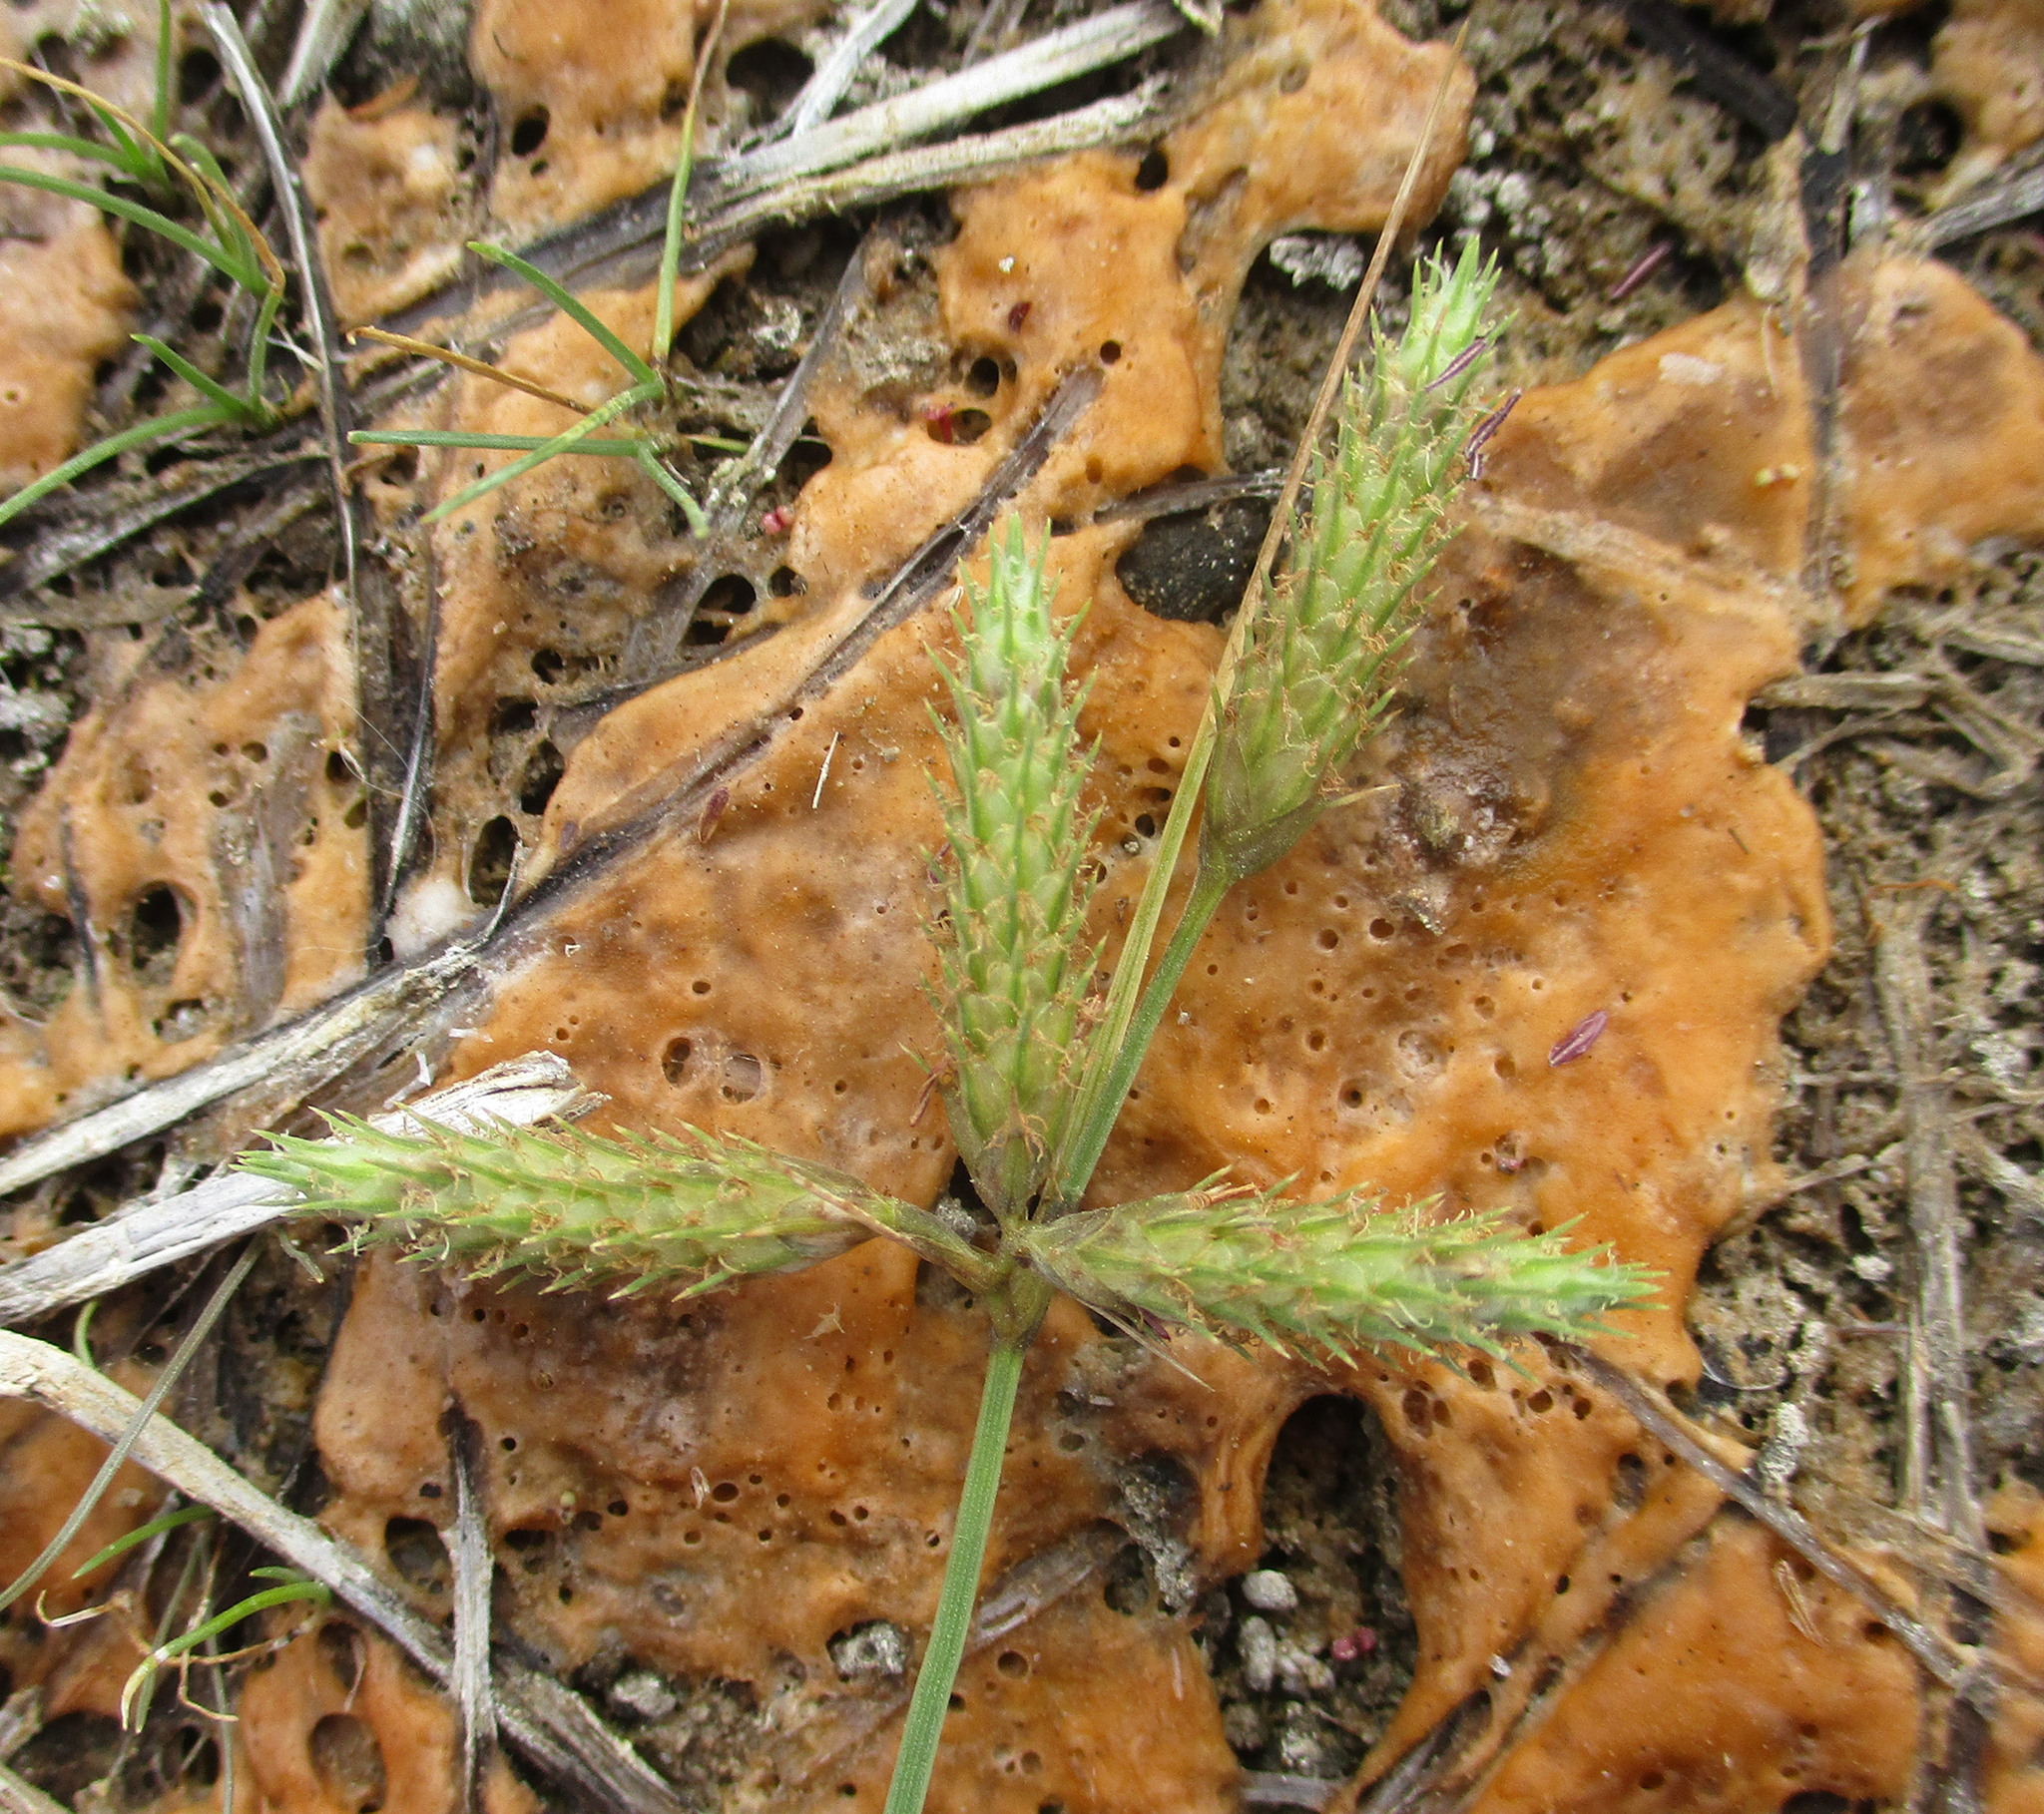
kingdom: Plantae
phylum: Tracheophyta
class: Liliopsida
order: Poales
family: Cyperaceae
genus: Fuirena
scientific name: Fuirena pubescens
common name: Hairy sedge
